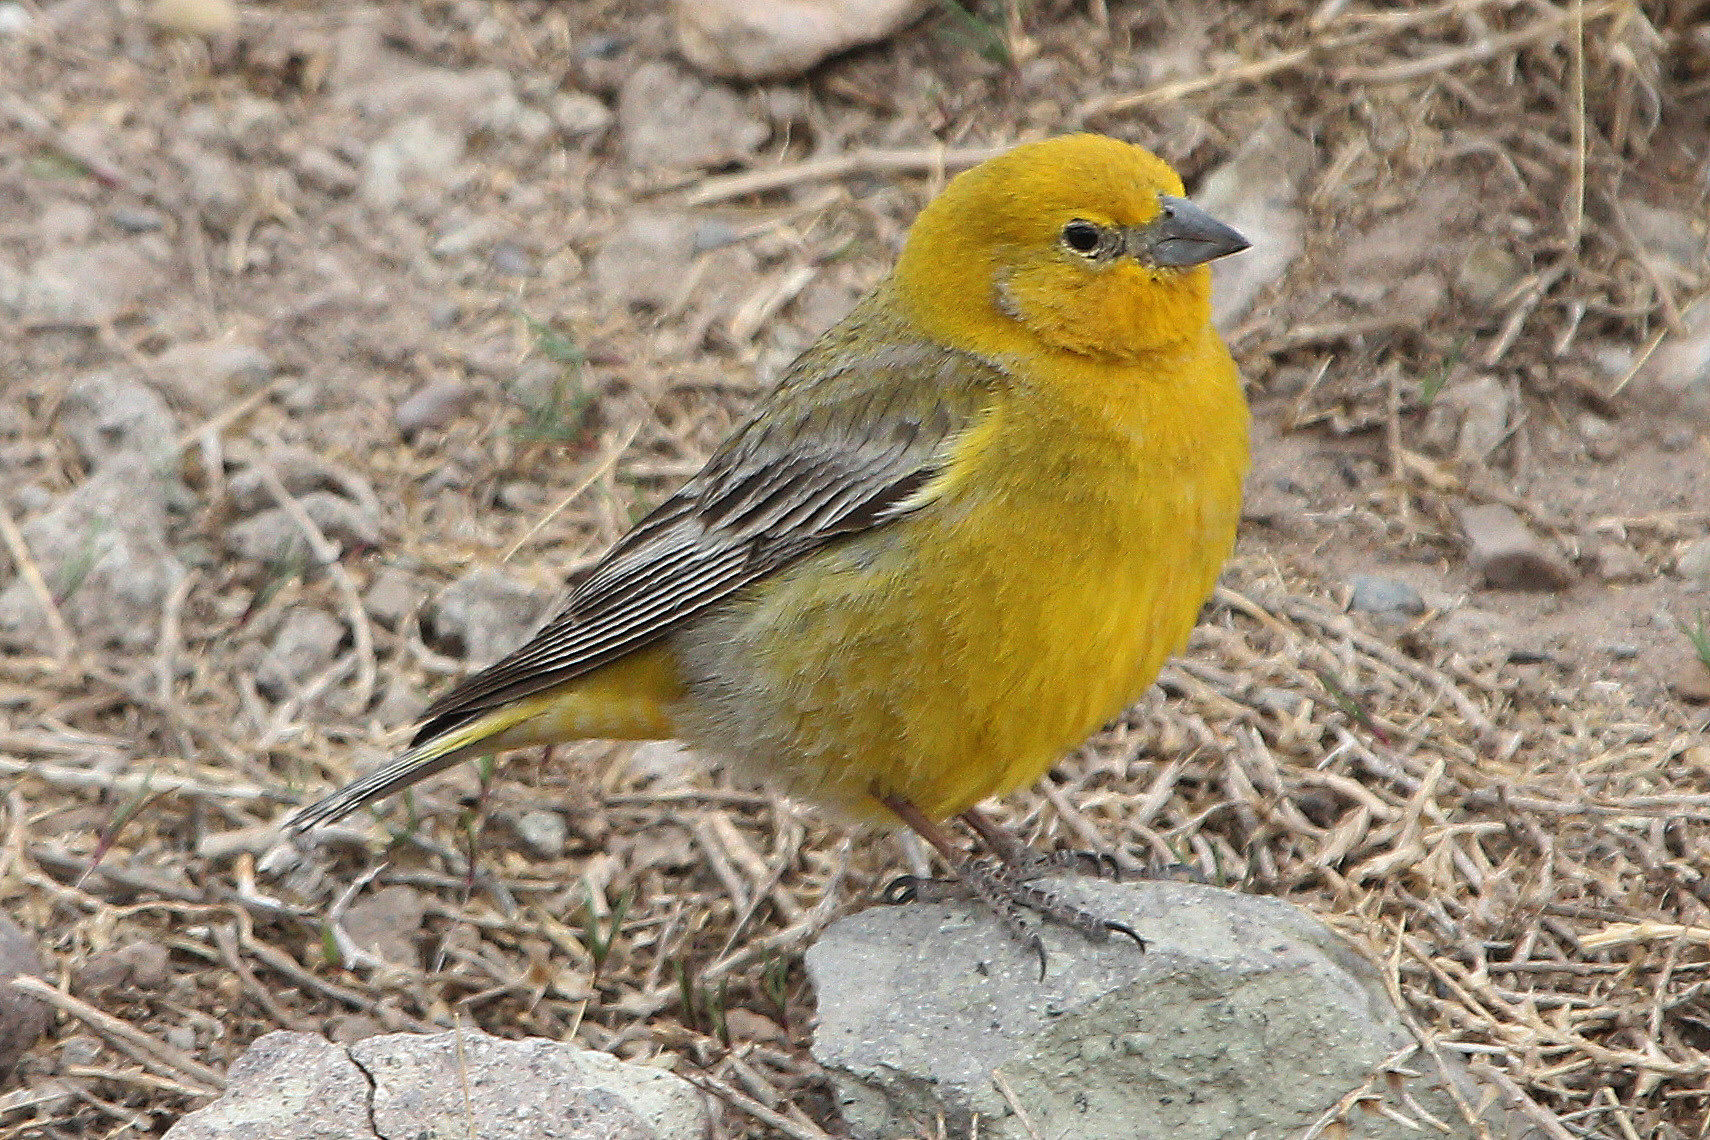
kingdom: Animalia
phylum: Chordata
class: Aves
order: Passeriformes
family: Thraupidae
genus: Sicalis
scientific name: Sicalis auriventris
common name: Greater yellow finch
